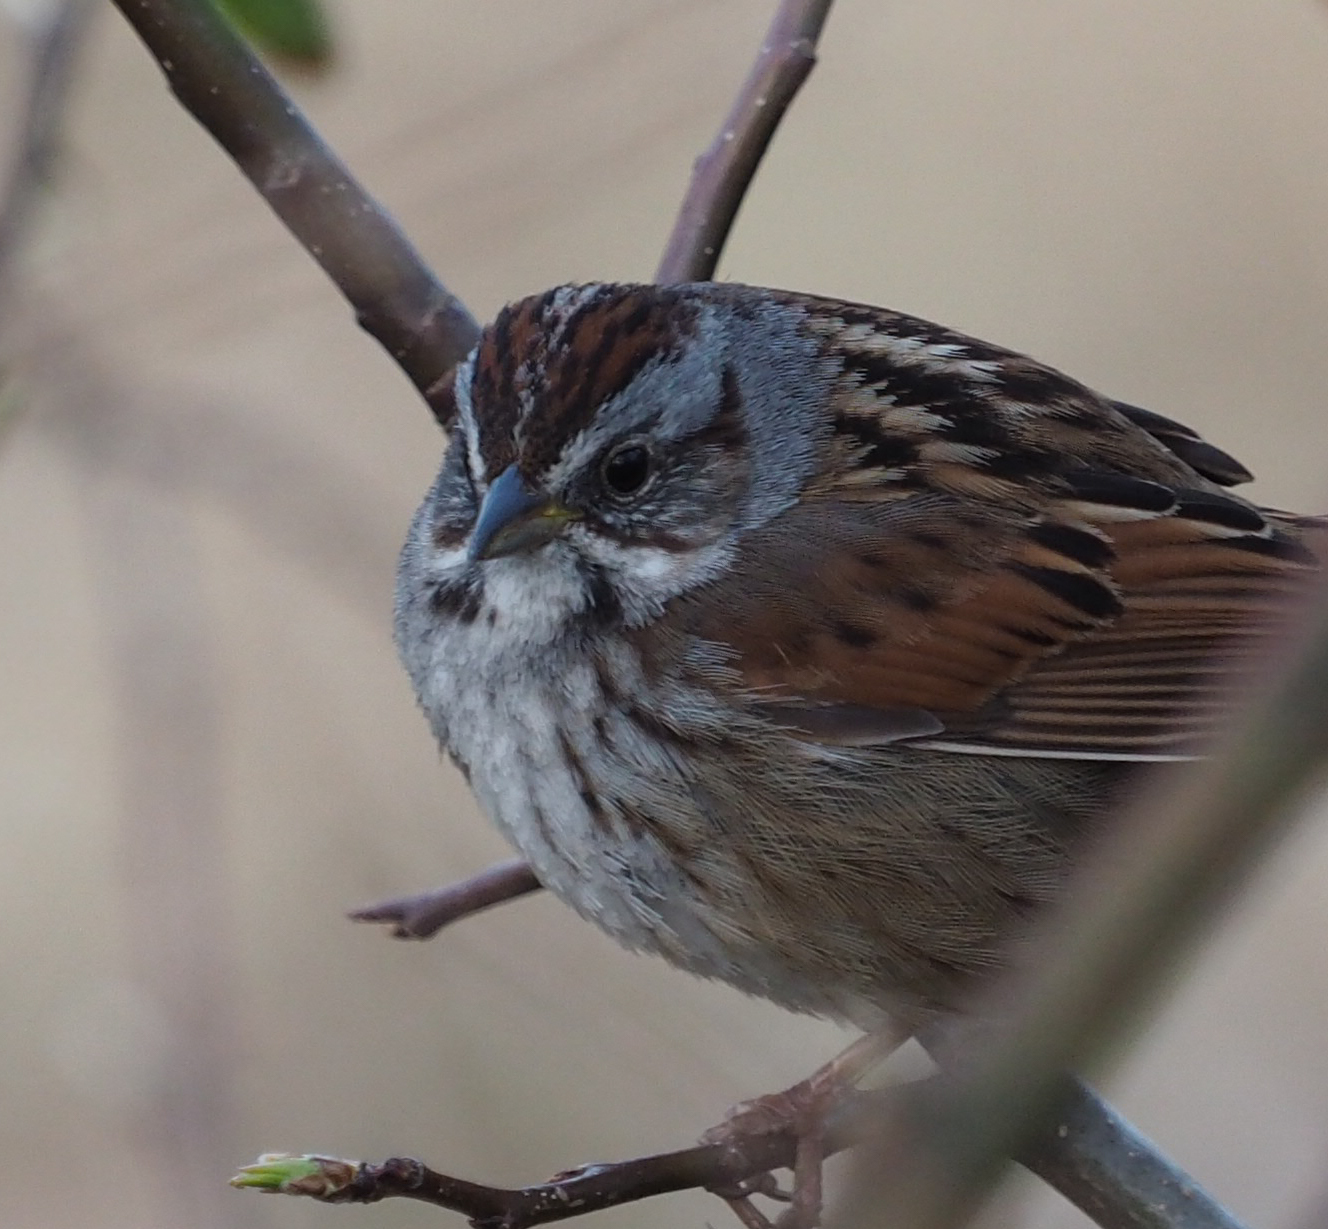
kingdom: Animalia
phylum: Chordata
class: Aves
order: Passeriformes
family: Passerellidae
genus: Melospiza
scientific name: Melospiza georgiana
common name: Swamp sparrow
